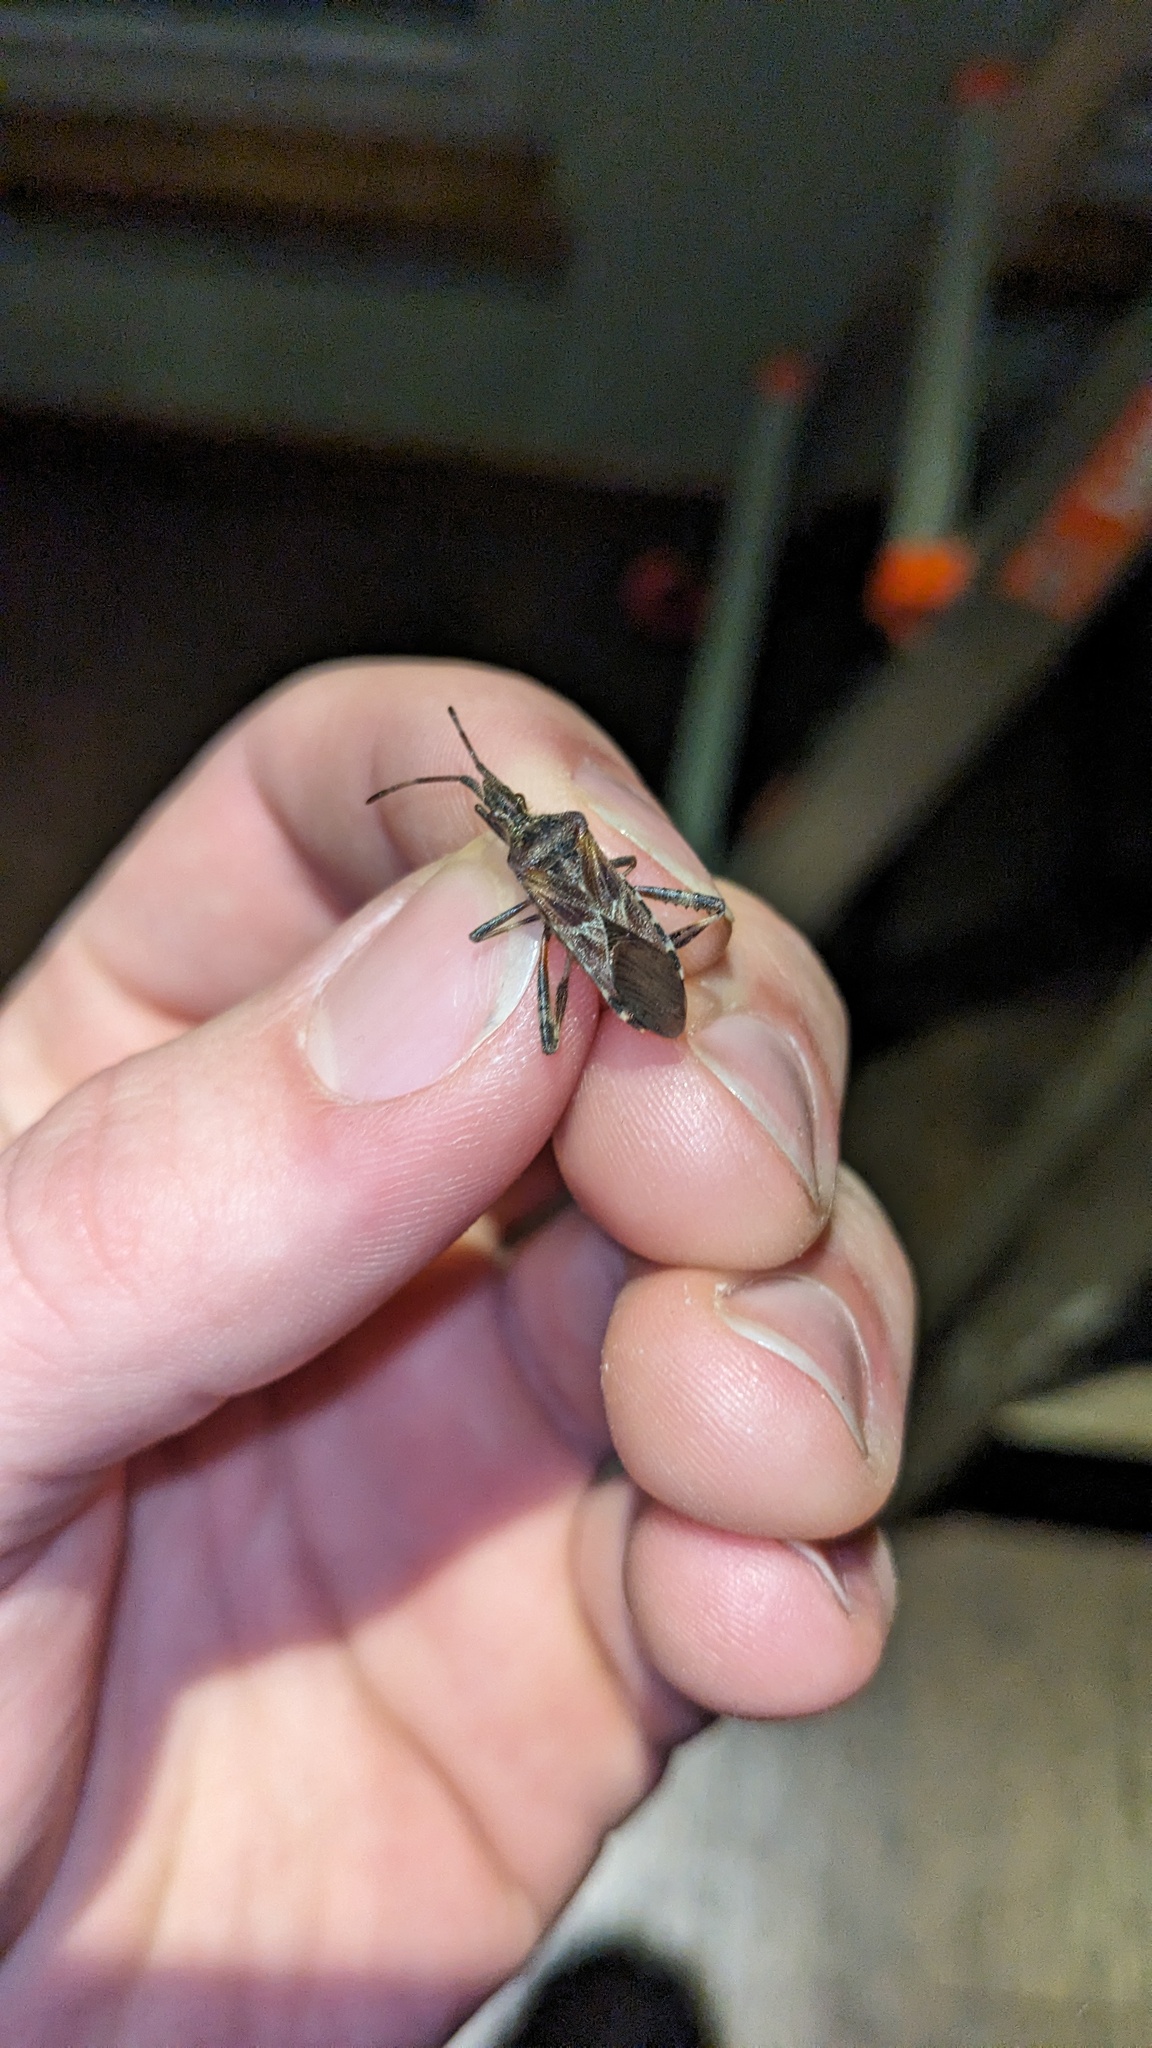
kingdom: Animalia
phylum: Arthropoda
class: Insecta
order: Hemiptera
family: Coreidae
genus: Leptoglossus
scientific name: Leptoglossus occidentalis
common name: Western conifer-seed bug
